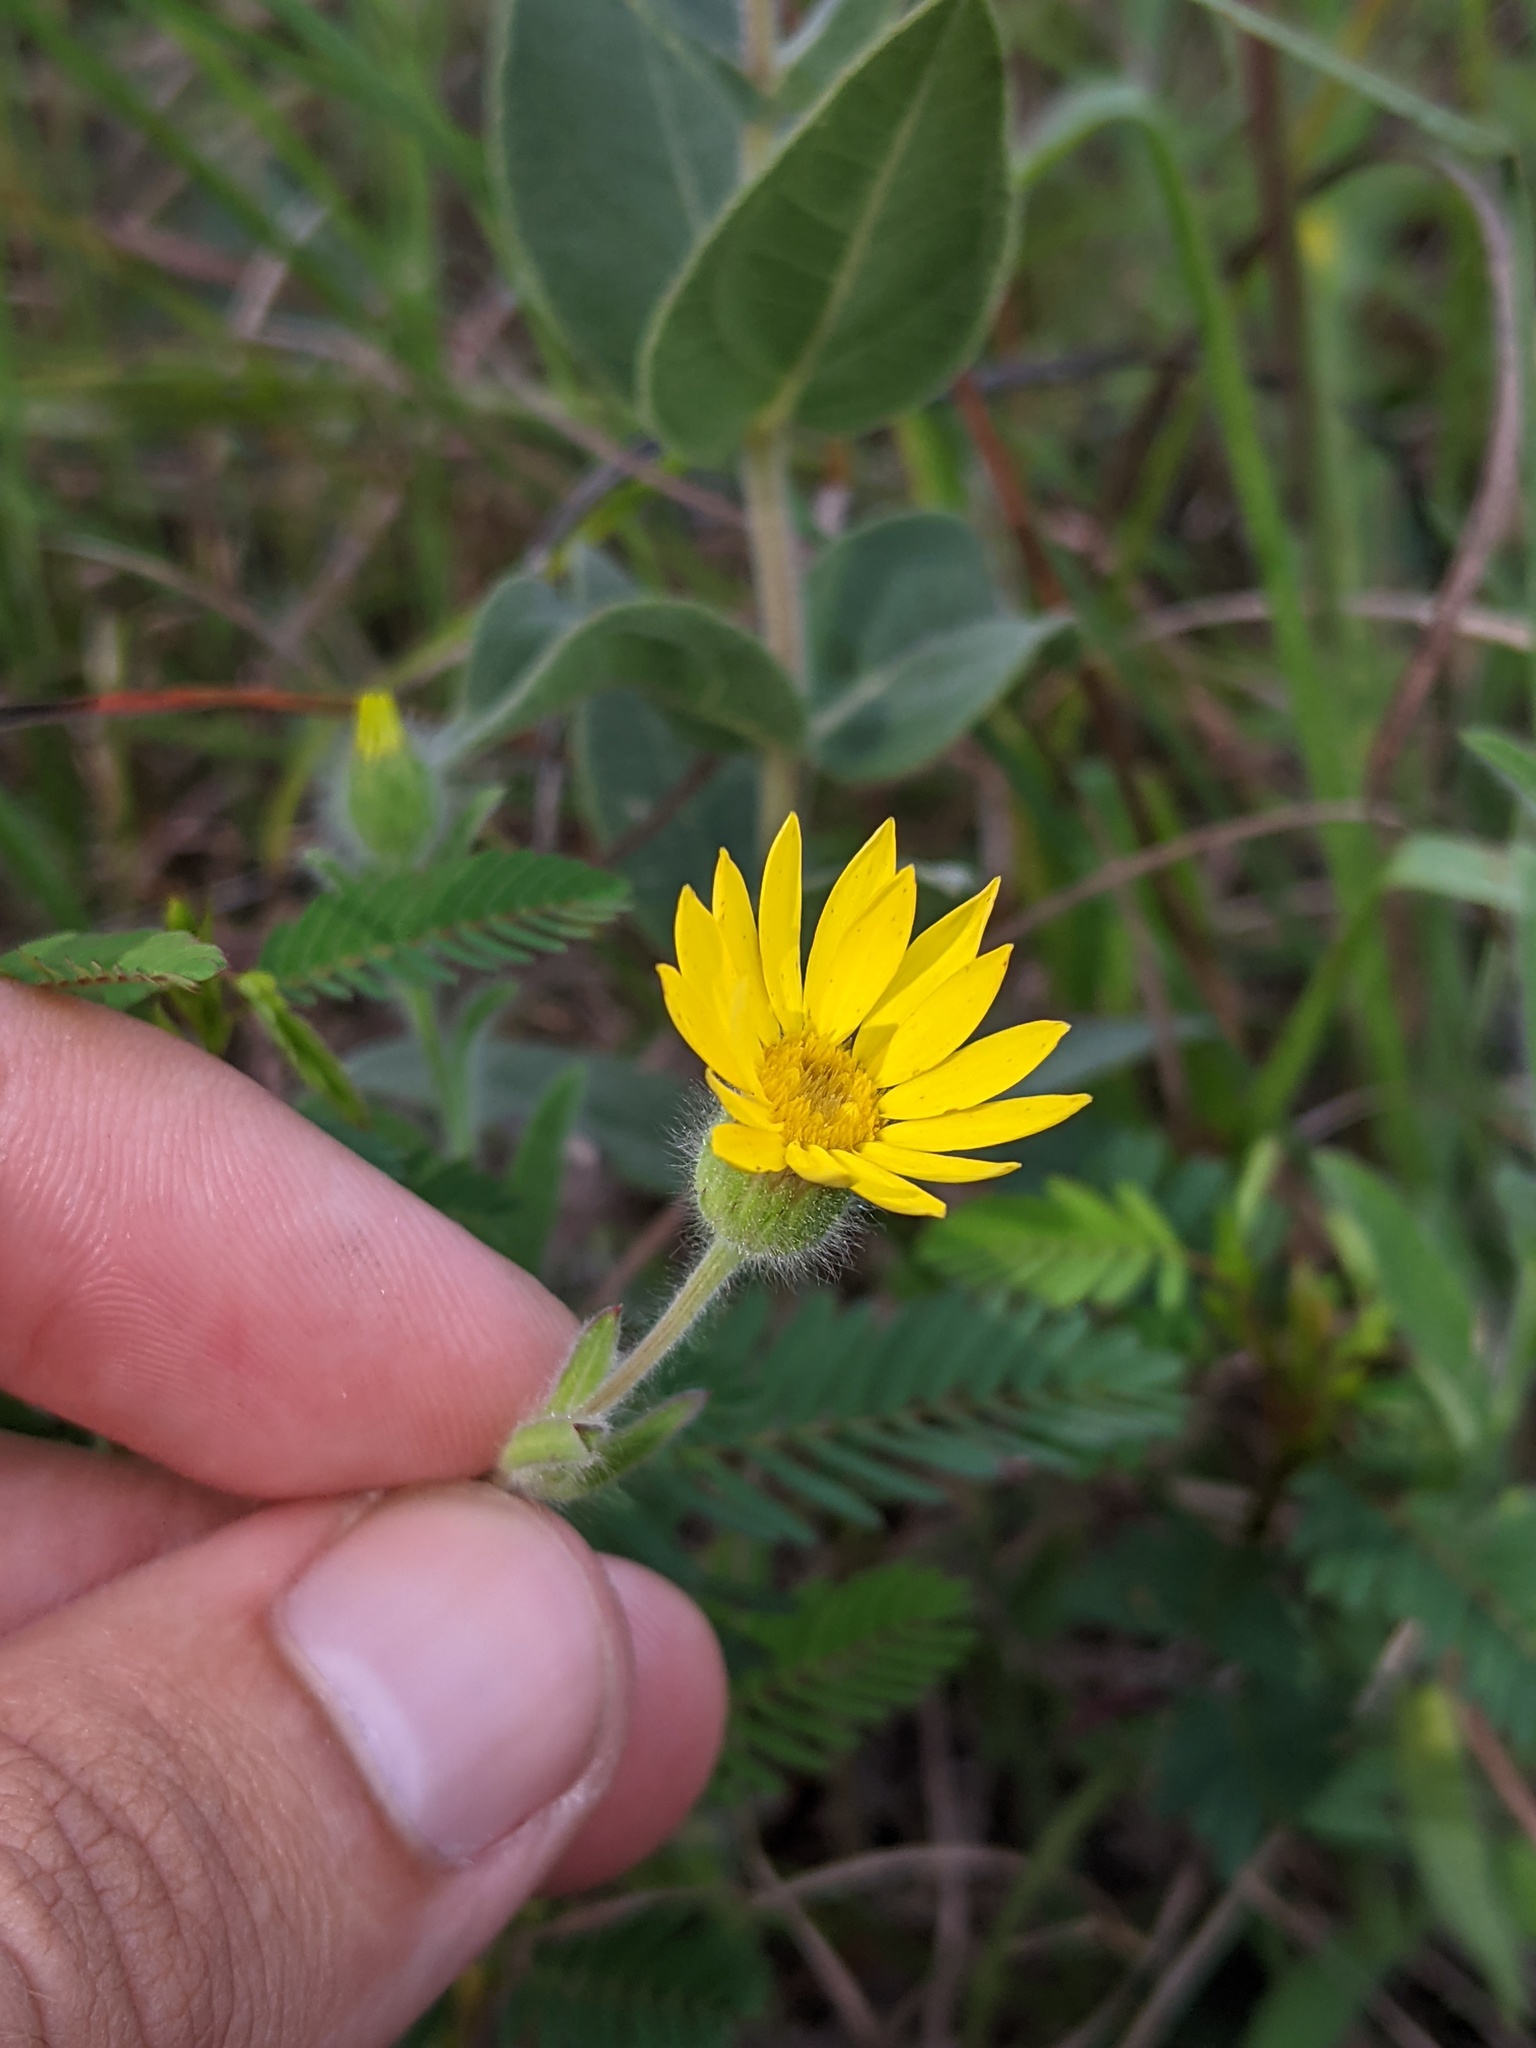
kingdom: Plantae
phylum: Tracheophyta
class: Magnoliopsida
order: Asterales
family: Asteraceae
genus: Bradburia
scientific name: Bradburia pilosa
